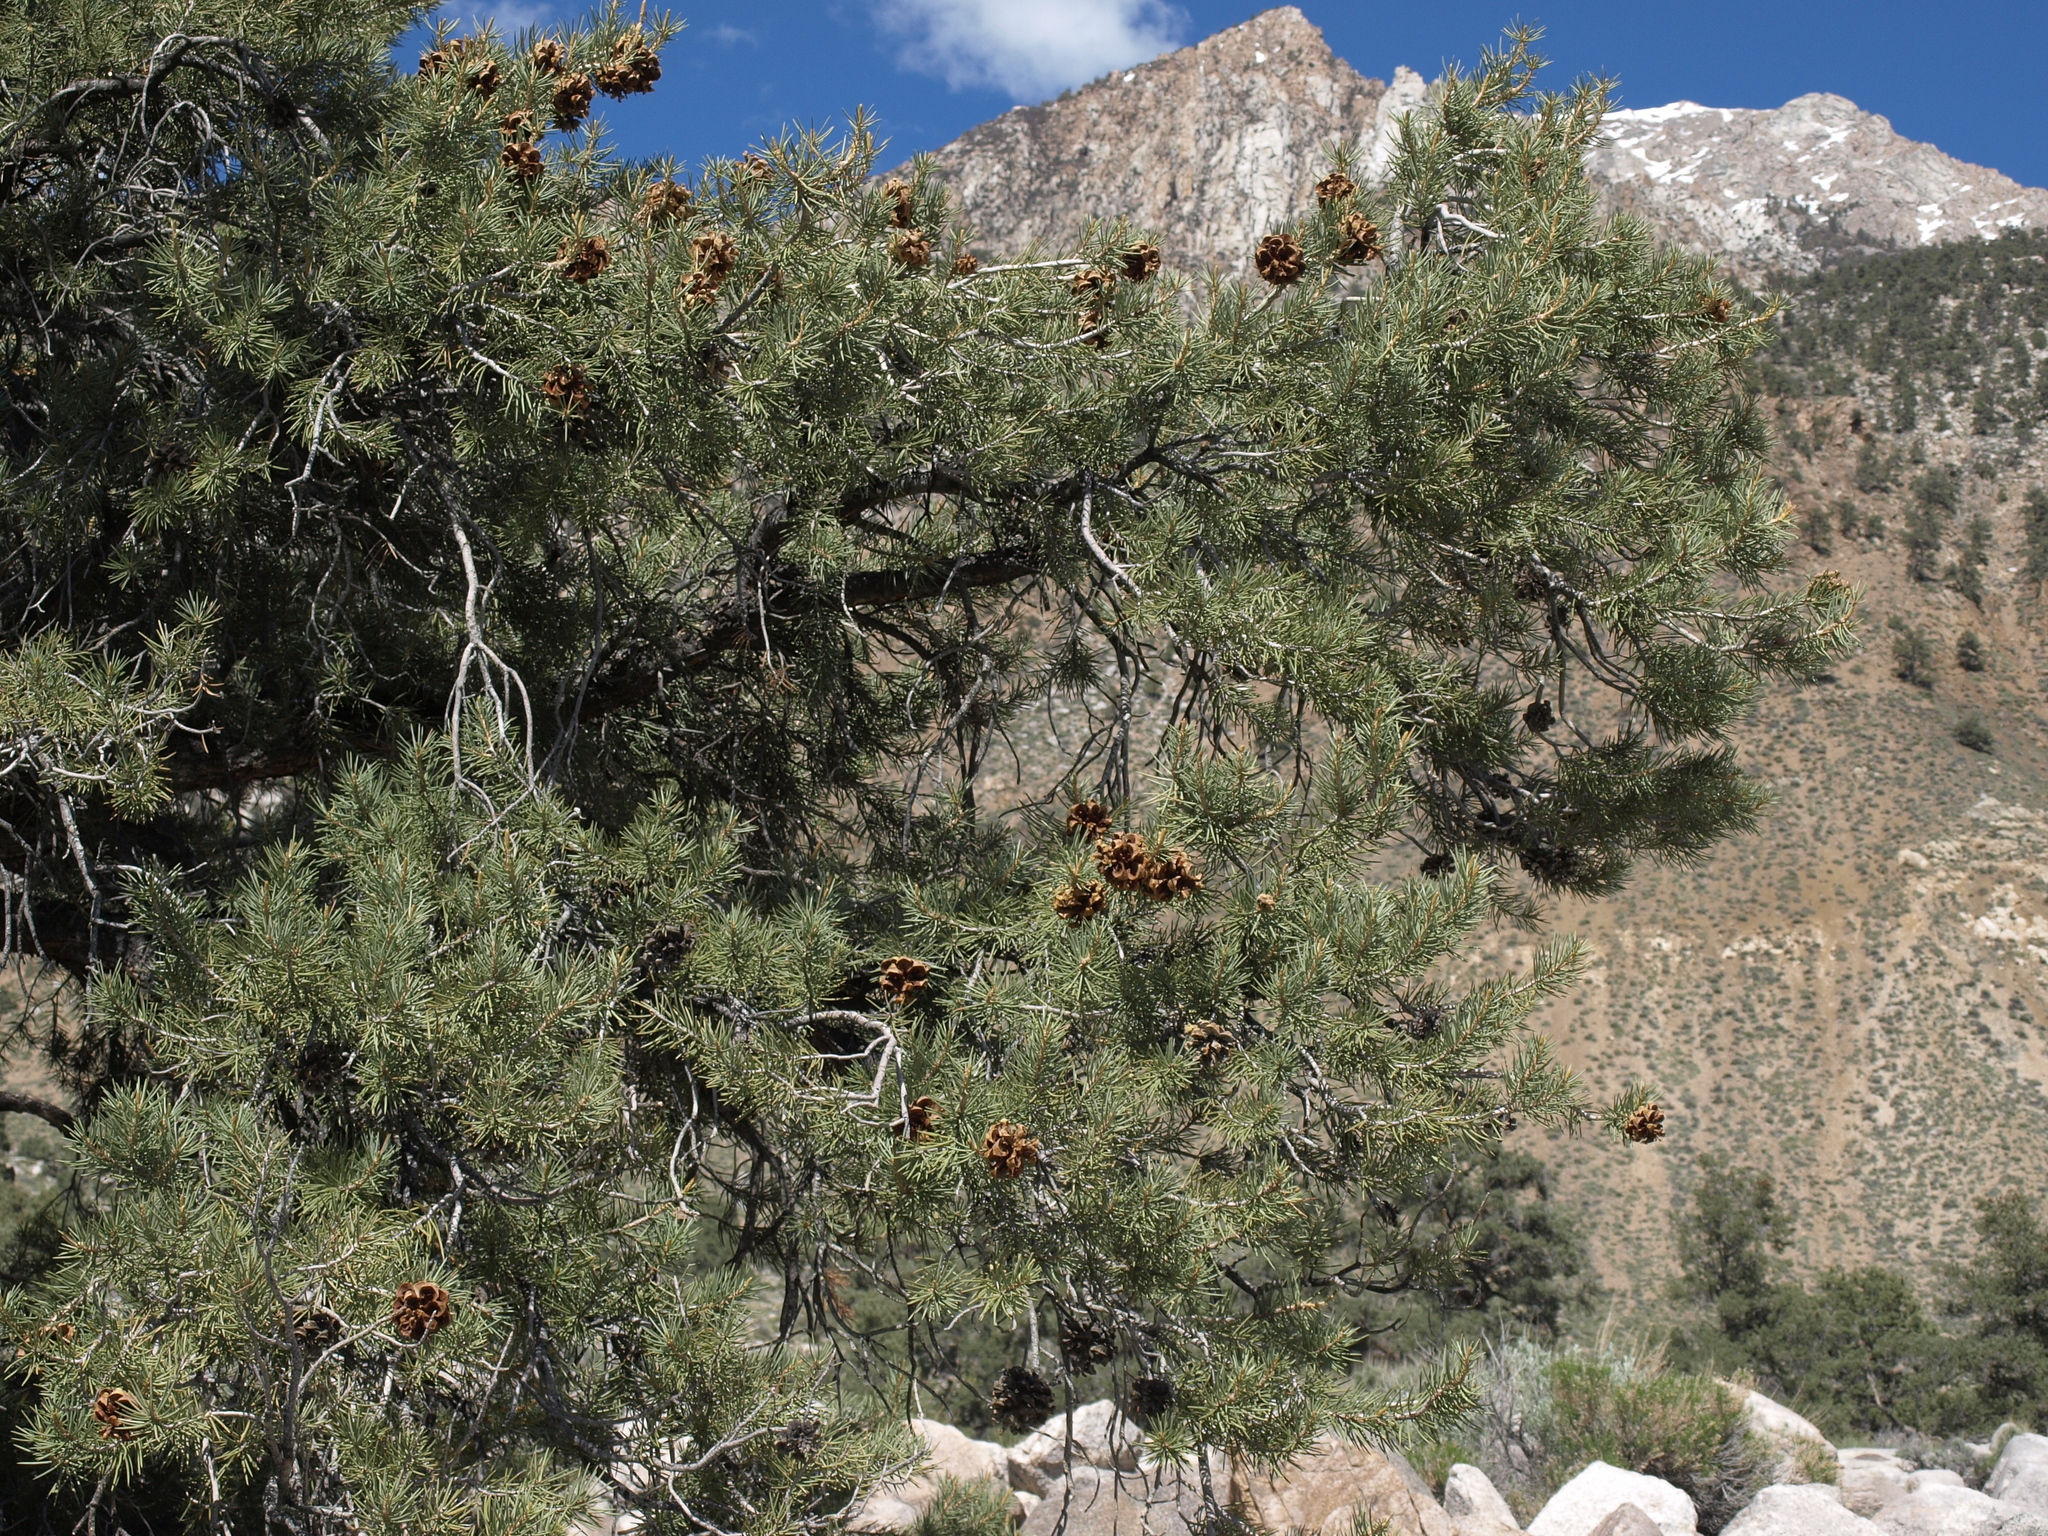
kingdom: Plantae
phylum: Tracheophyta
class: Pinopsida
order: Pinales
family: Pinaceae
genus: Pinus
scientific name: Pinus monophylla
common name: One-leaved nut pine
